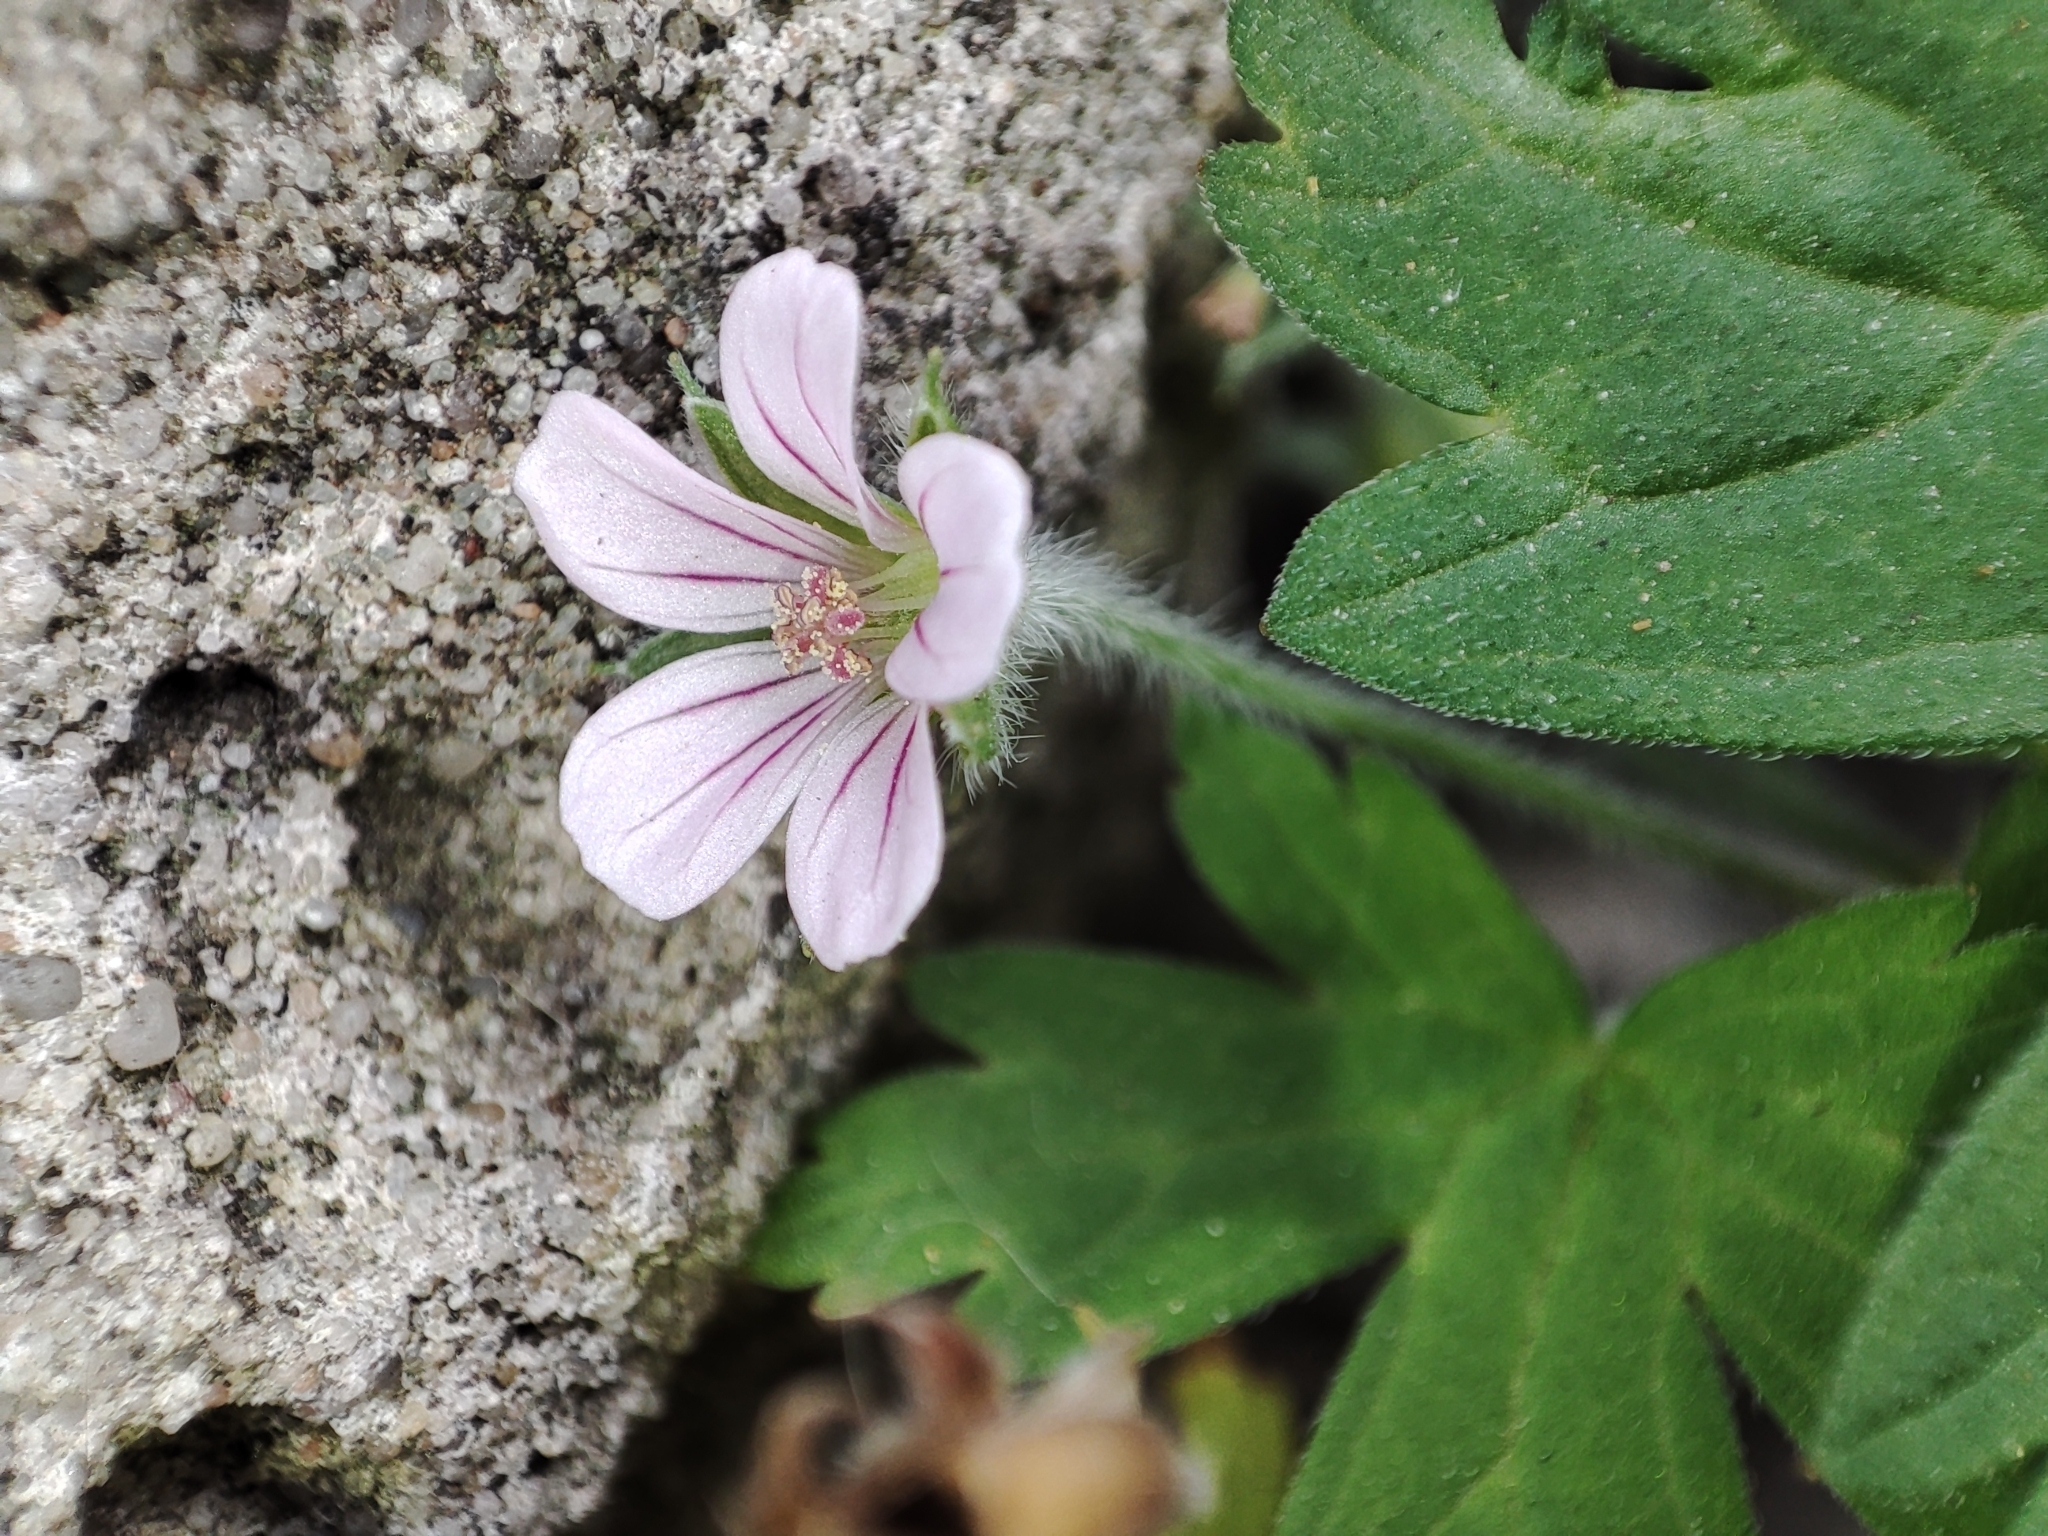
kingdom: Plantae
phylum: Tracheophyta
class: Magnoliopsida
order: Geraniales
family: Geraniaceae
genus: Geranium
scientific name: Geranium sibiricum
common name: Siberian crane's-bill
